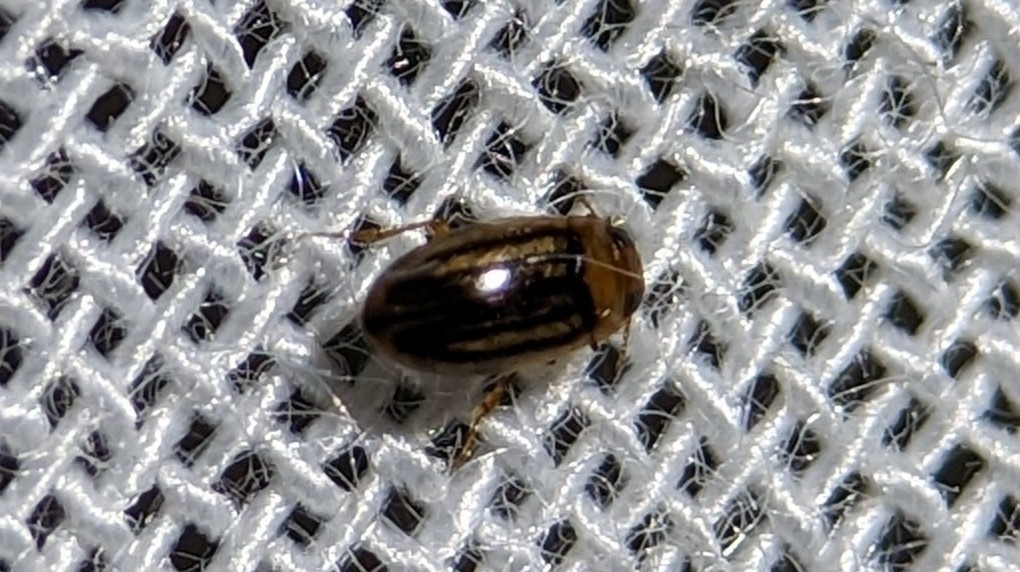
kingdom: Animalia
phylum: Arthropoda
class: Insecta
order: Coleoptera
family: Dytiscidae
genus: Neobidessus
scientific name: Neobidessus pullus
